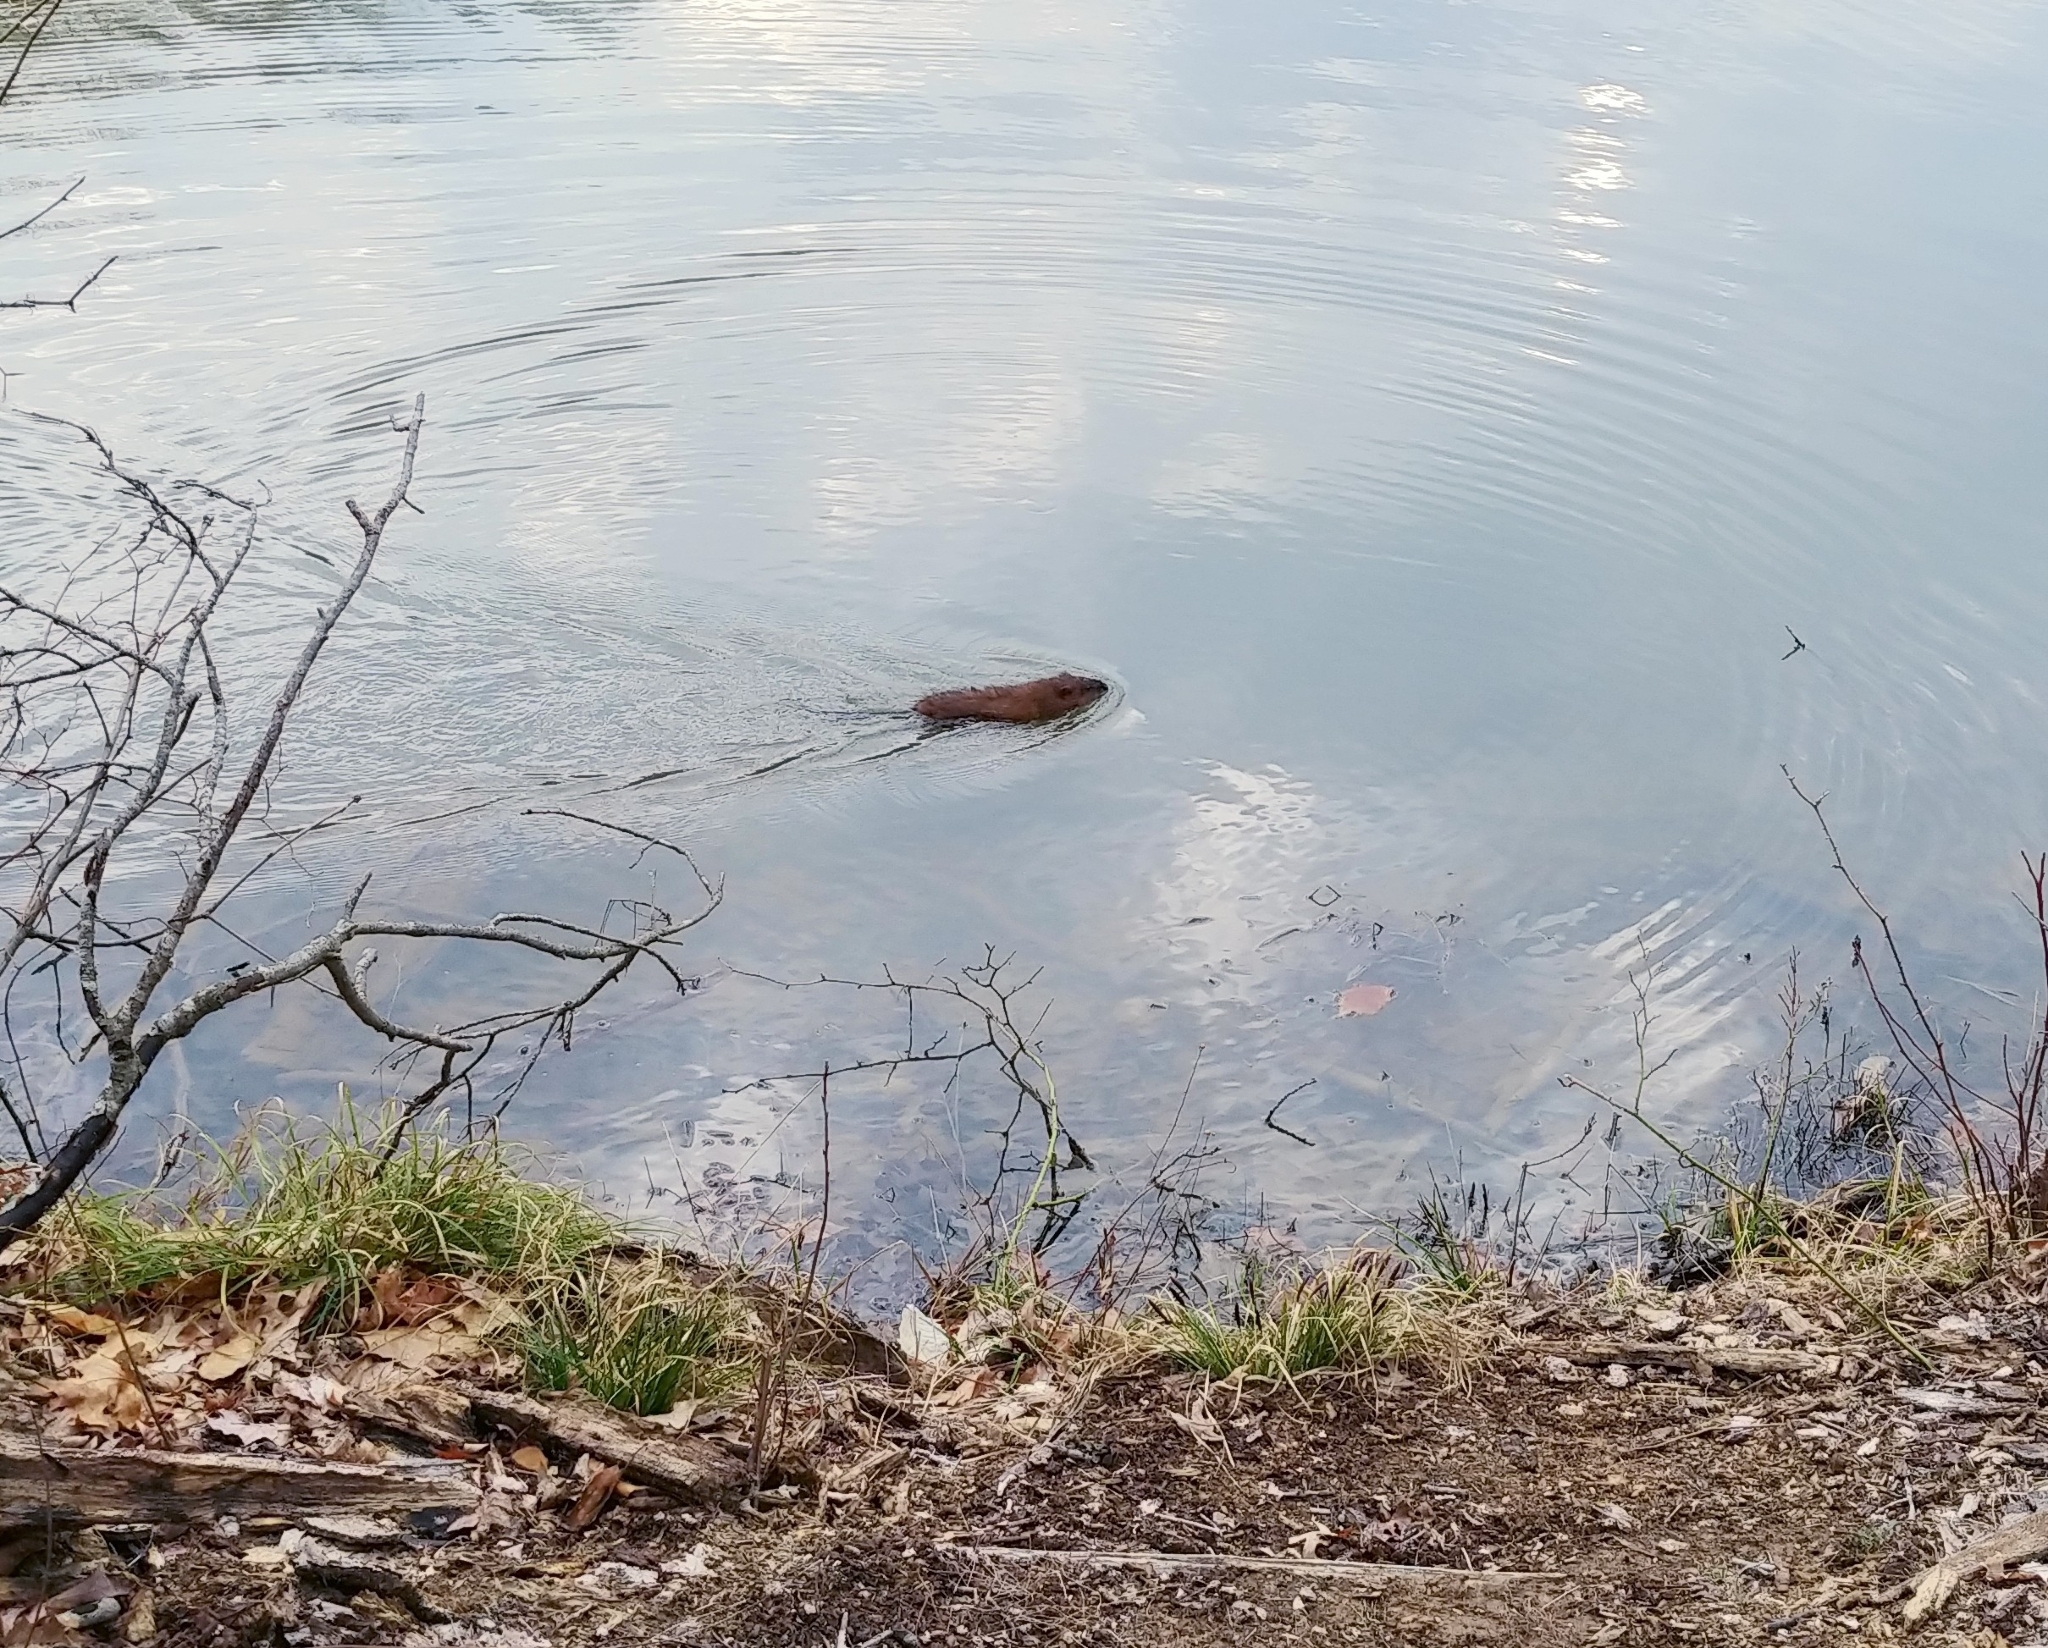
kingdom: Animalia
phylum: Chordata
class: Mammalia
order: Rodentia
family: Cricetidae
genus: Ondatra
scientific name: Ondatra zibethicus
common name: Muskrat
